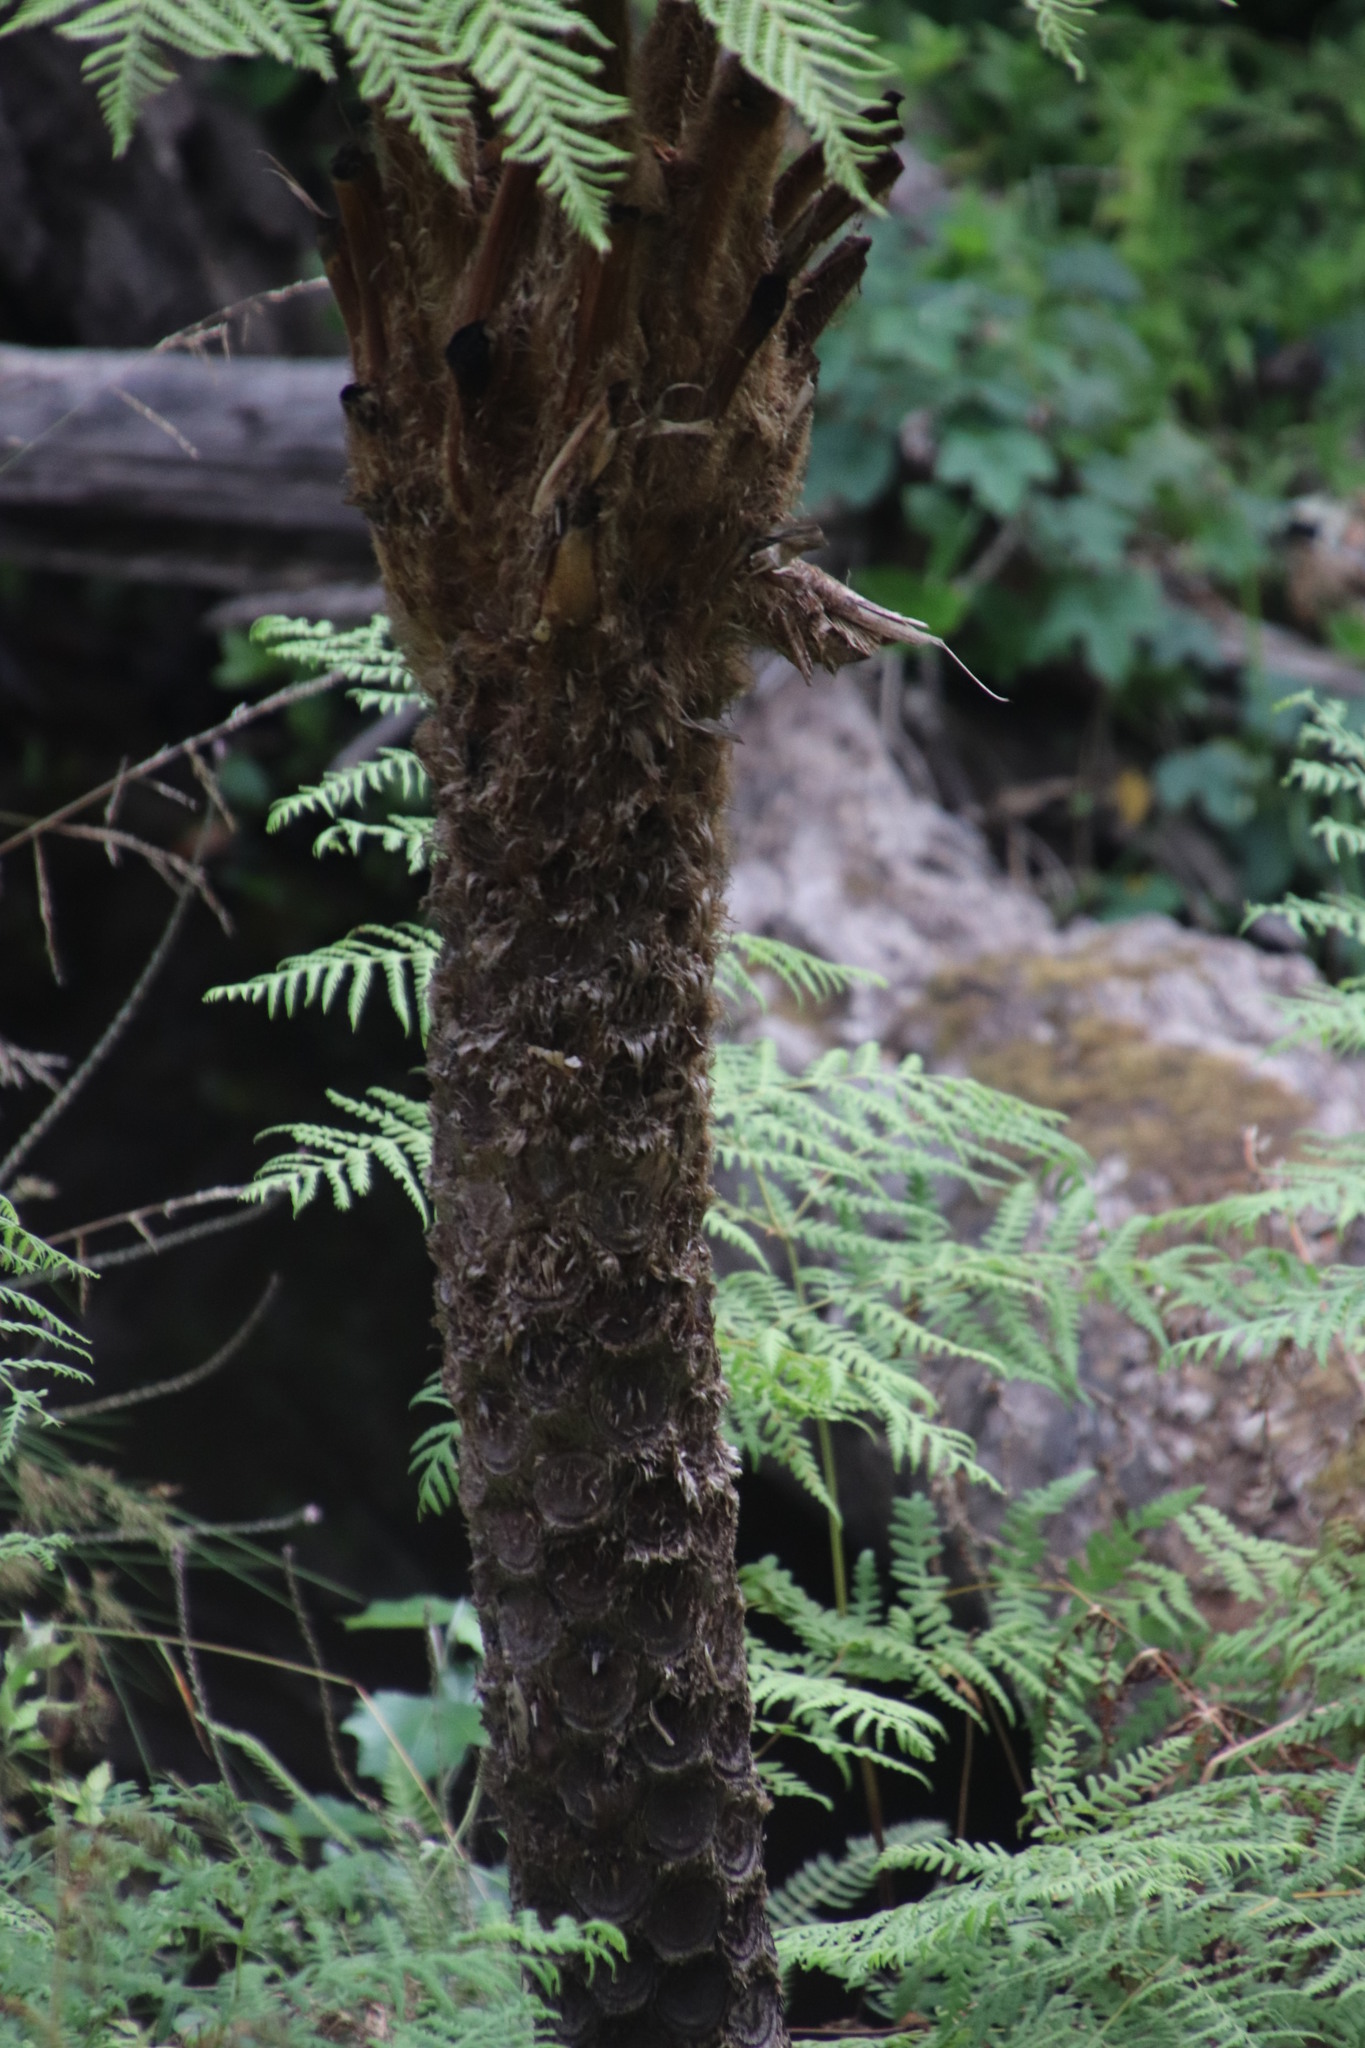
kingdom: Plantae
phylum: Tracheophyta
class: Polypodiopsida
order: Cyatheales
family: Cyatheaceae
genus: Sphaeropteris
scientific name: Sphaeropteris cooperi
